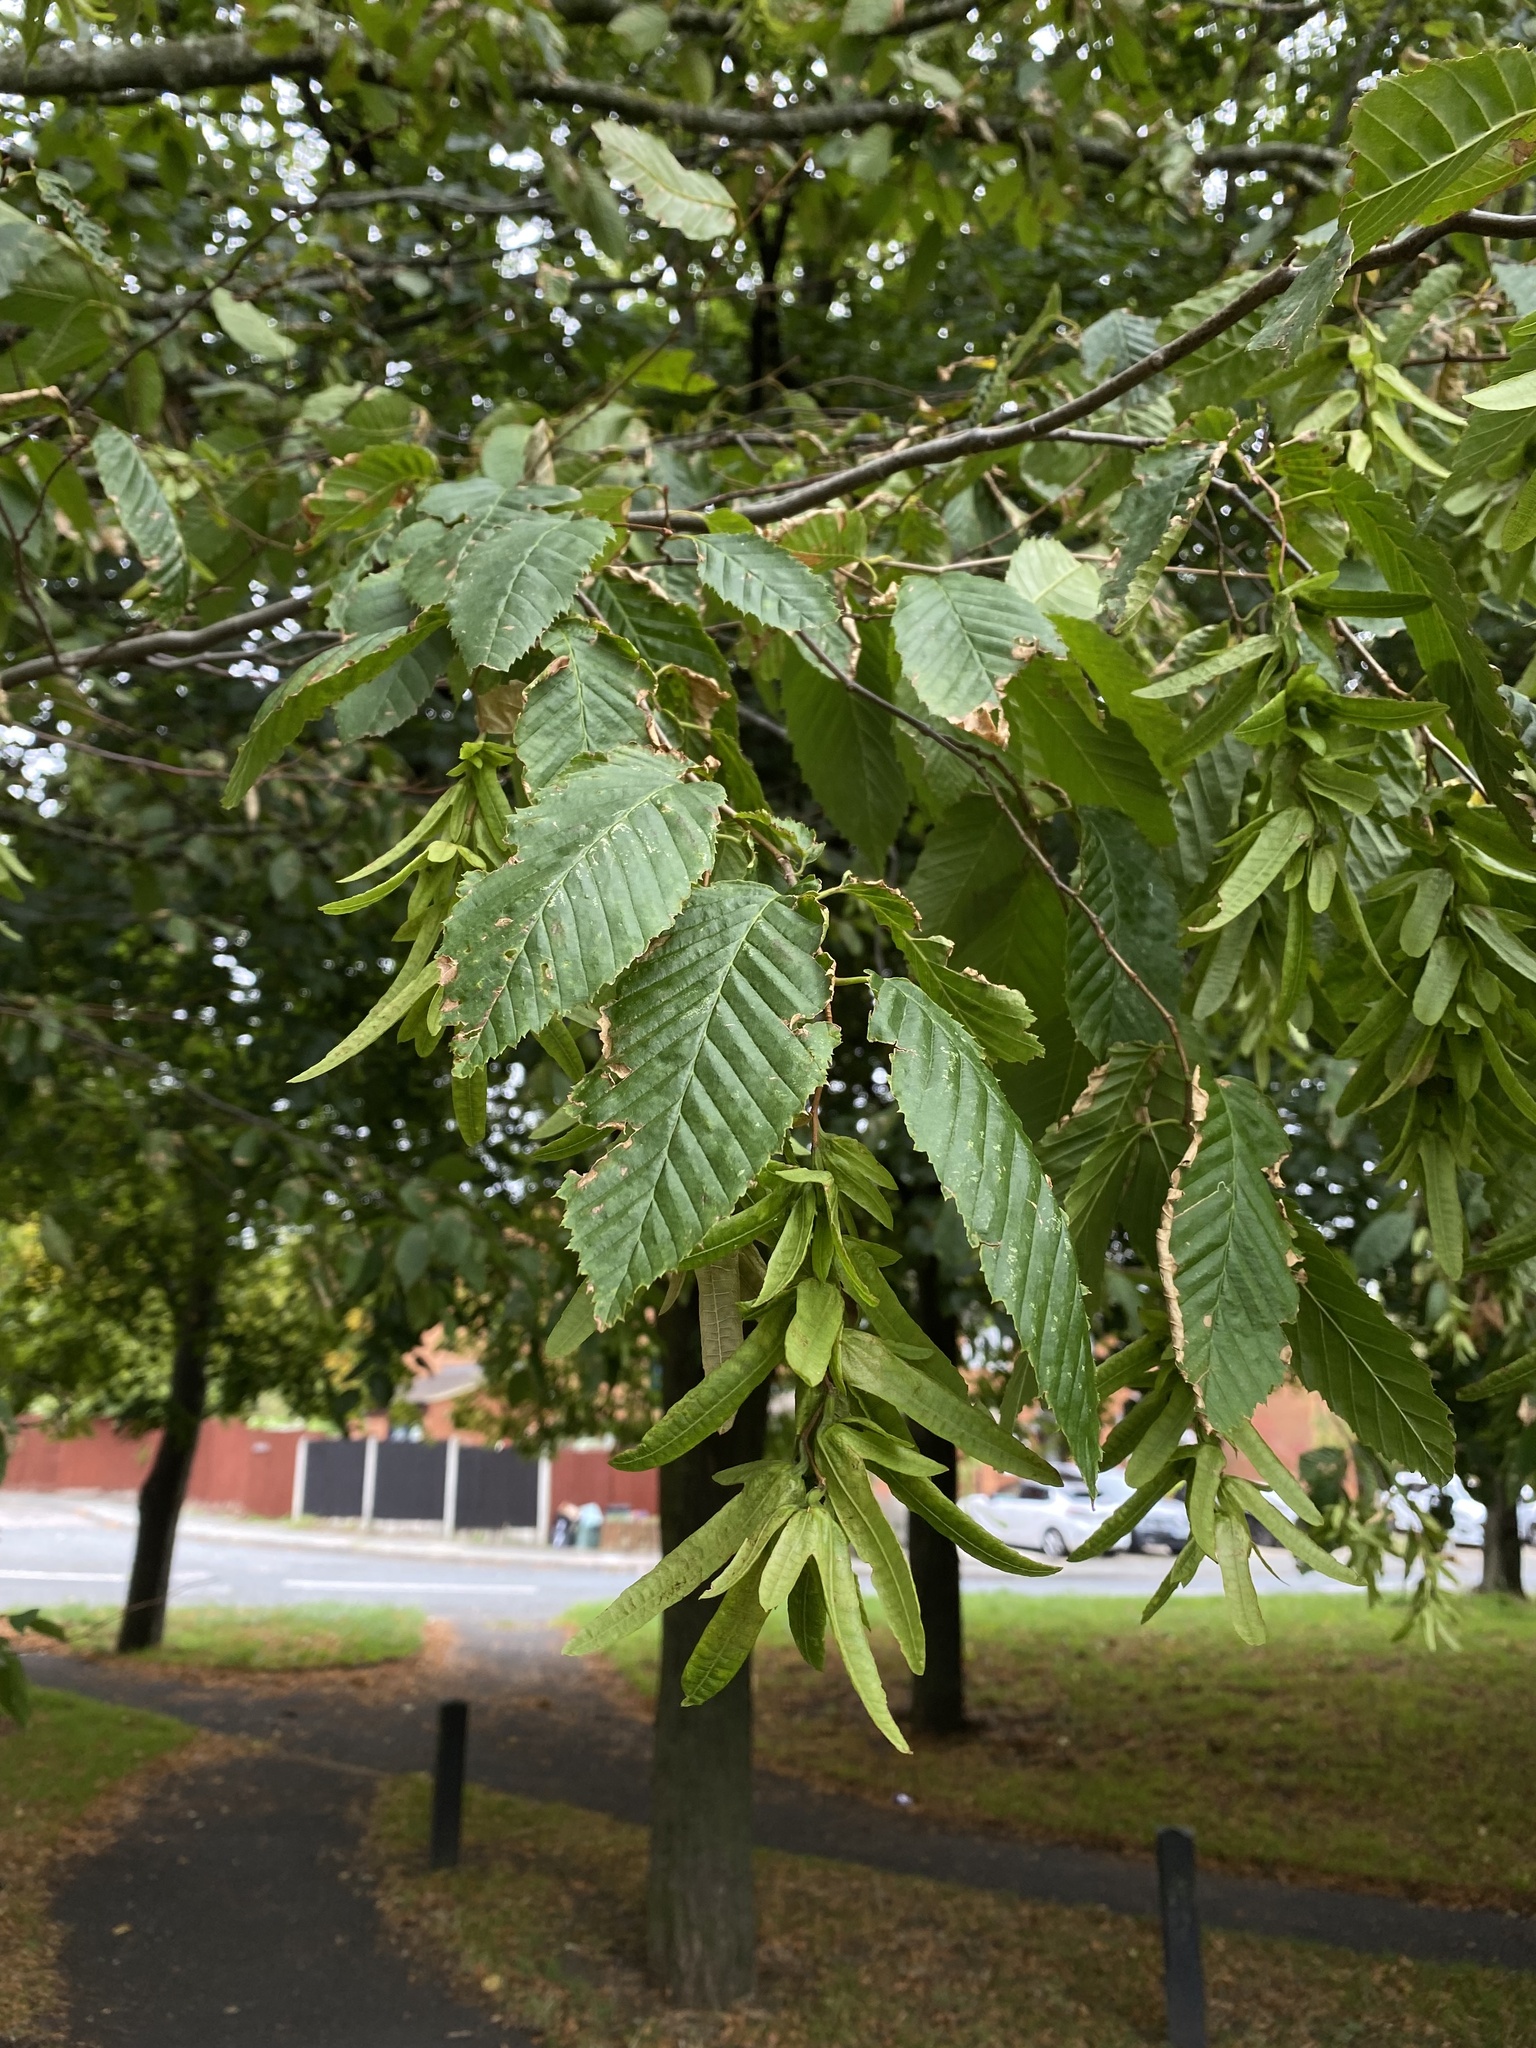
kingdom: Plantae
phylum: Tracheophyta
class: Magnoliopsida
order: Fagales
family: Betulaceae
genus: Carpinus
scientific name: Carpinus betulus
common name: Hornbeam
